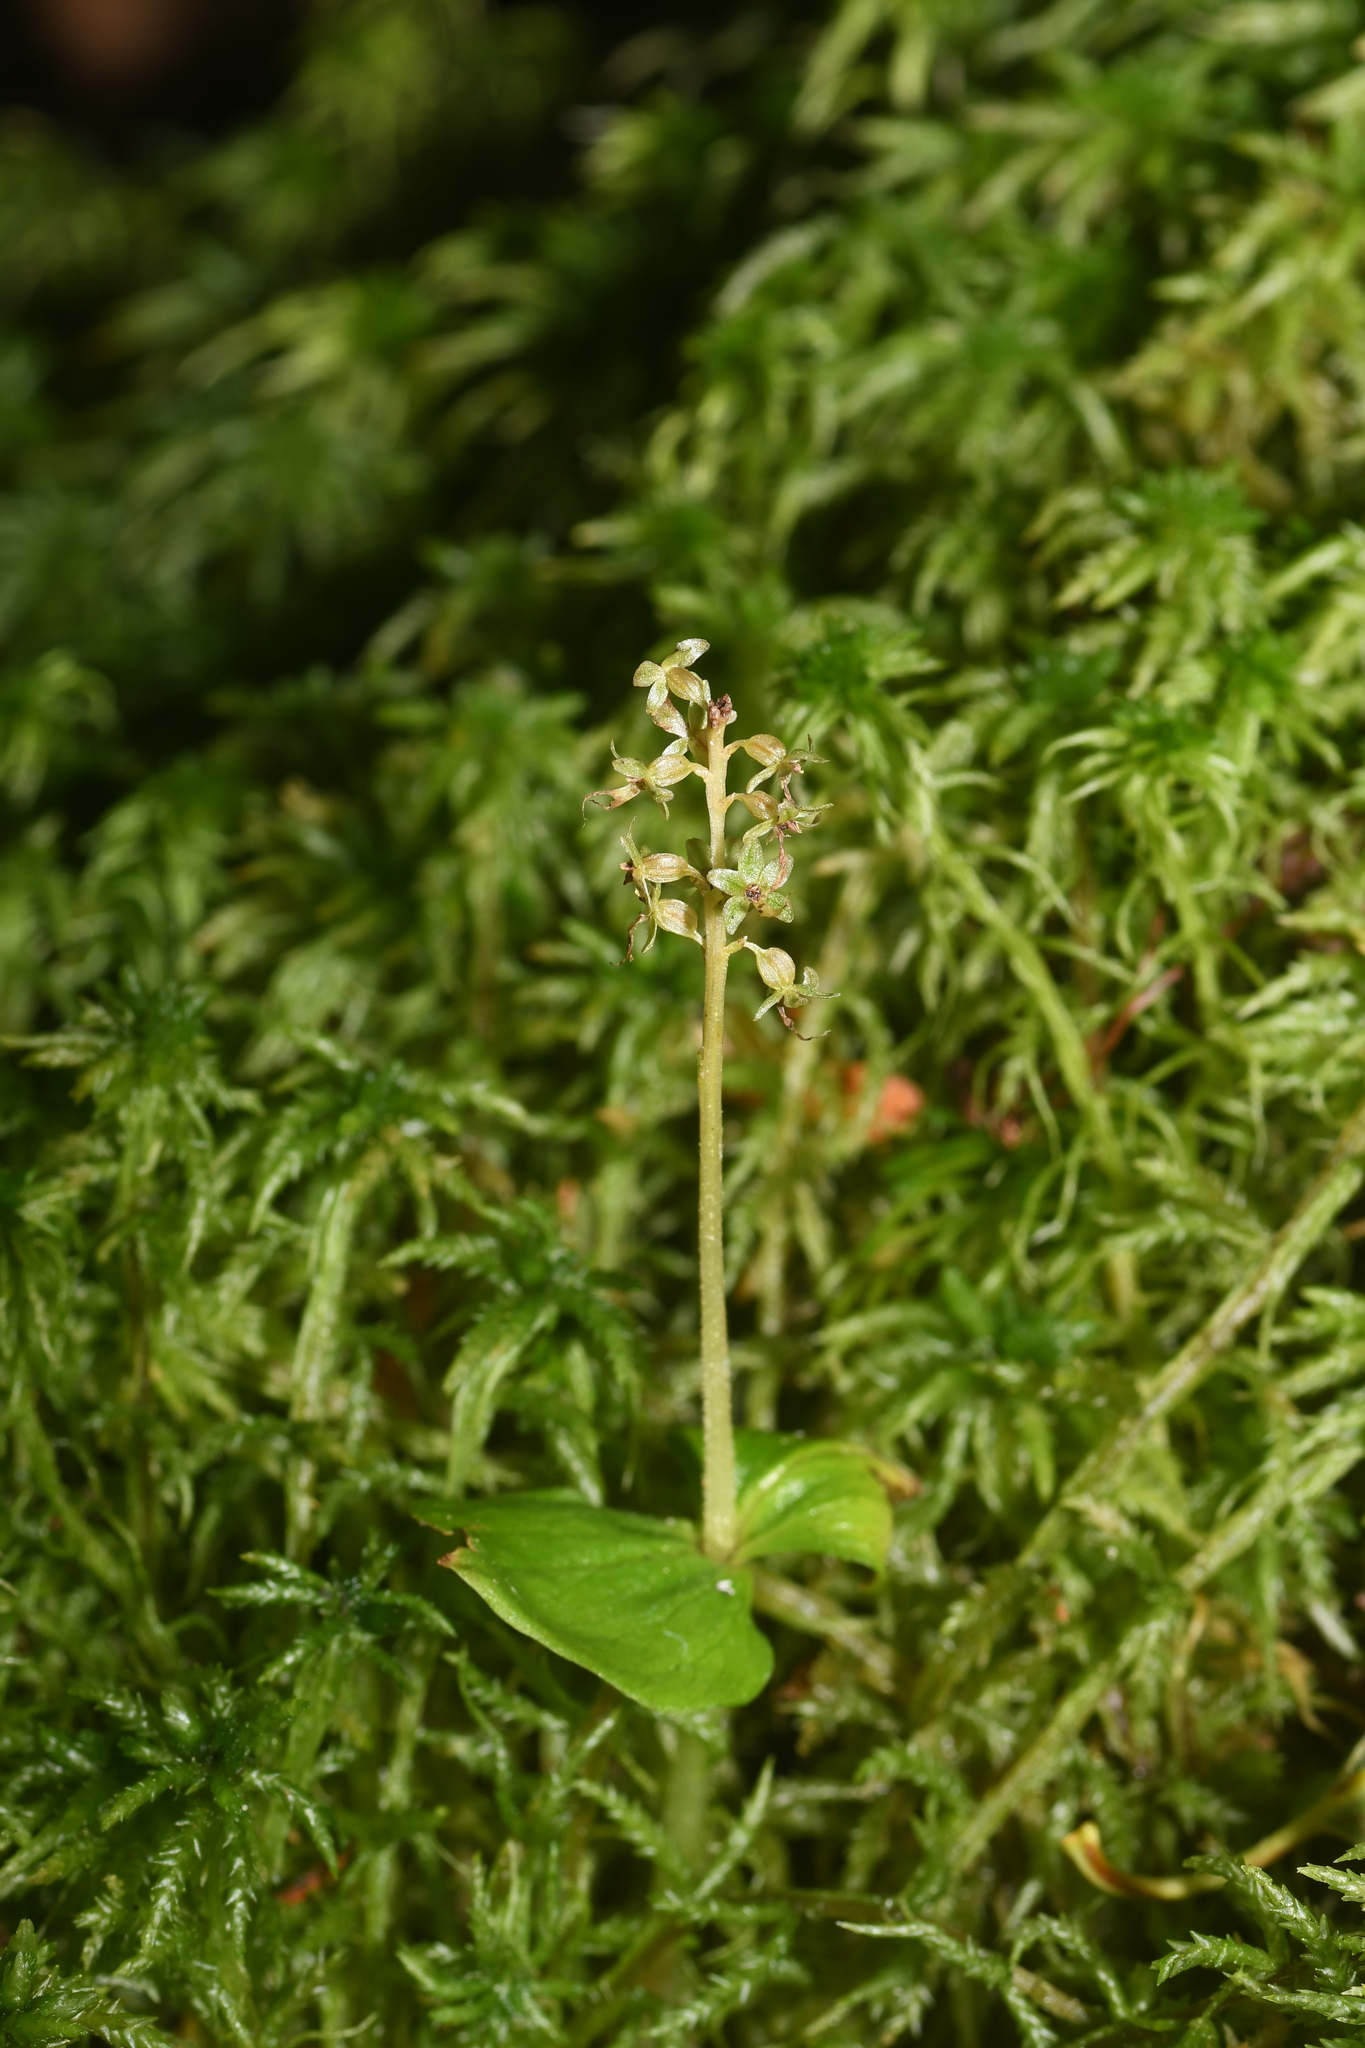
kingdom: Plantae
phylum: Tracheophyta
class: Liliopsida
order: Asparagales
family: Orchidaceae
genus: Neottia
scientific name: Neottia cordata
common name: Lesser twayblade
